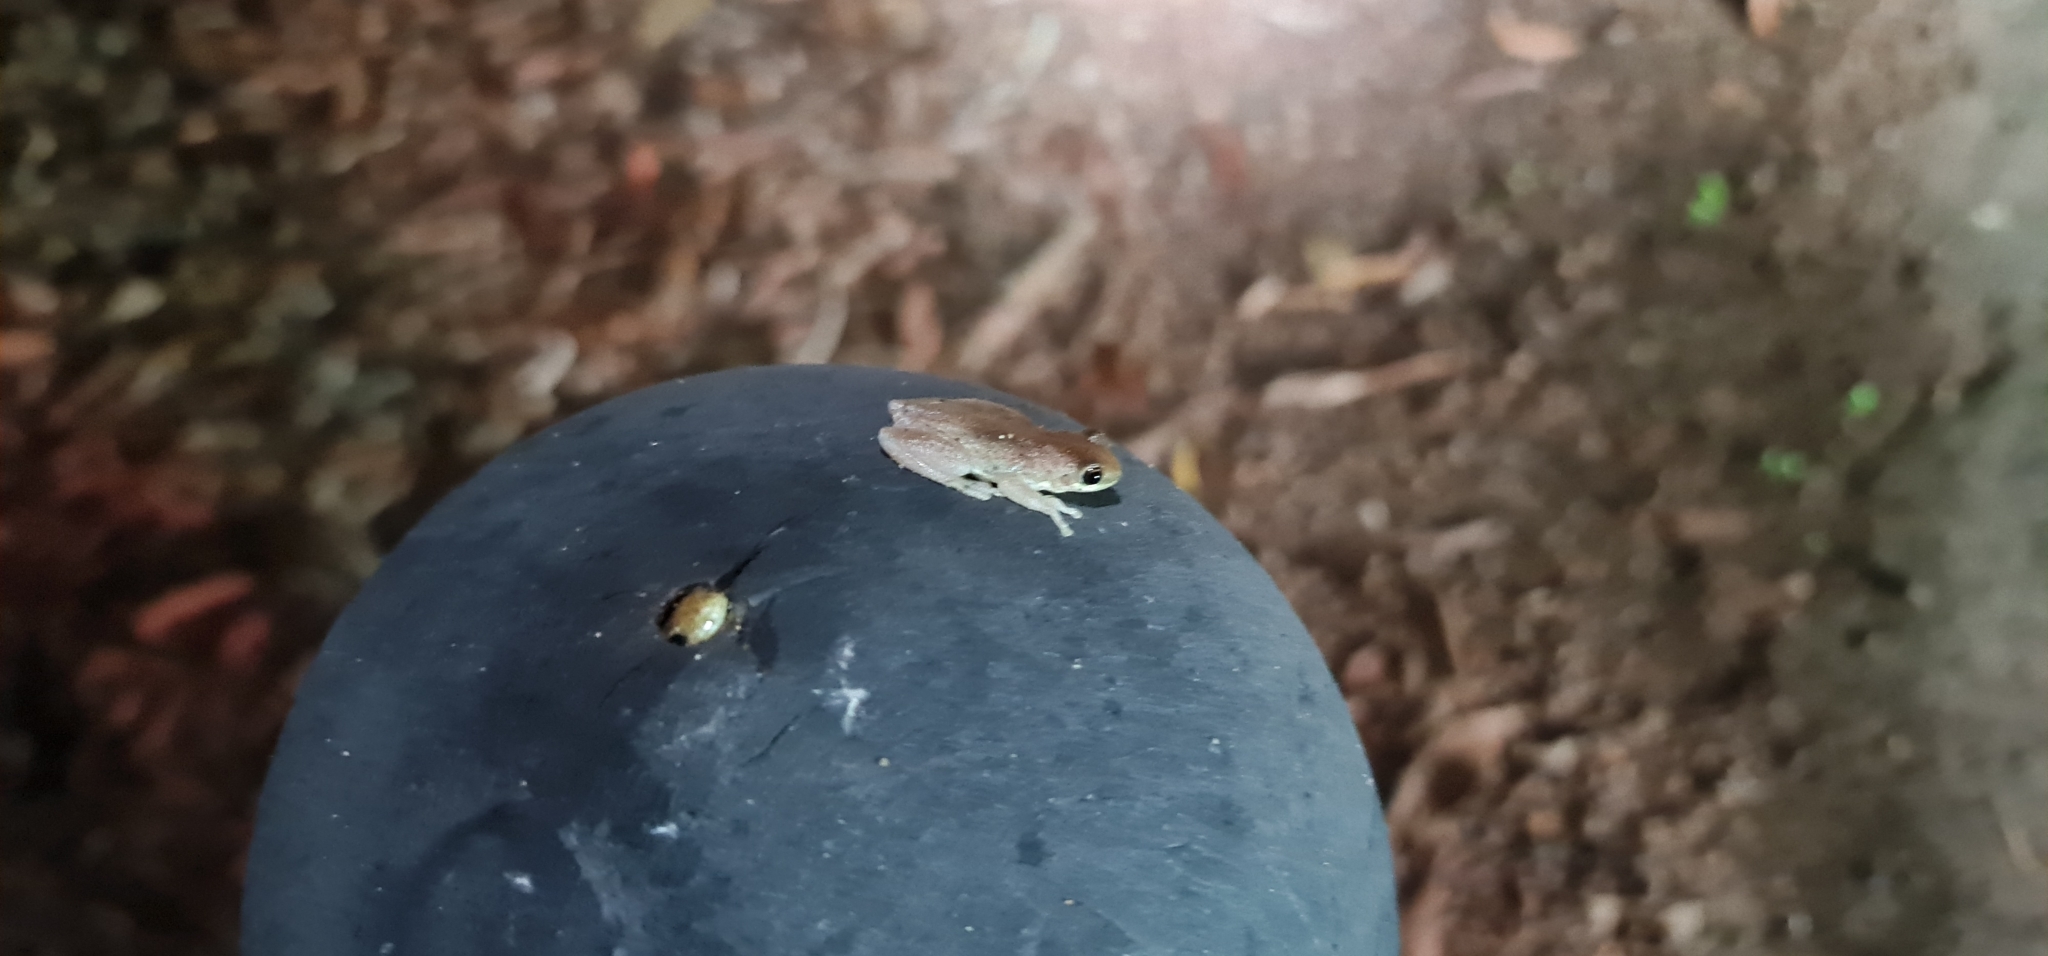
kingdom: Animalia
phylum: Chordata
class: Amphibia
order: Anura
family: Pelodryadidae
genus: Litoria
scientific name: Litoria rubella
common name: Desert tree frog
